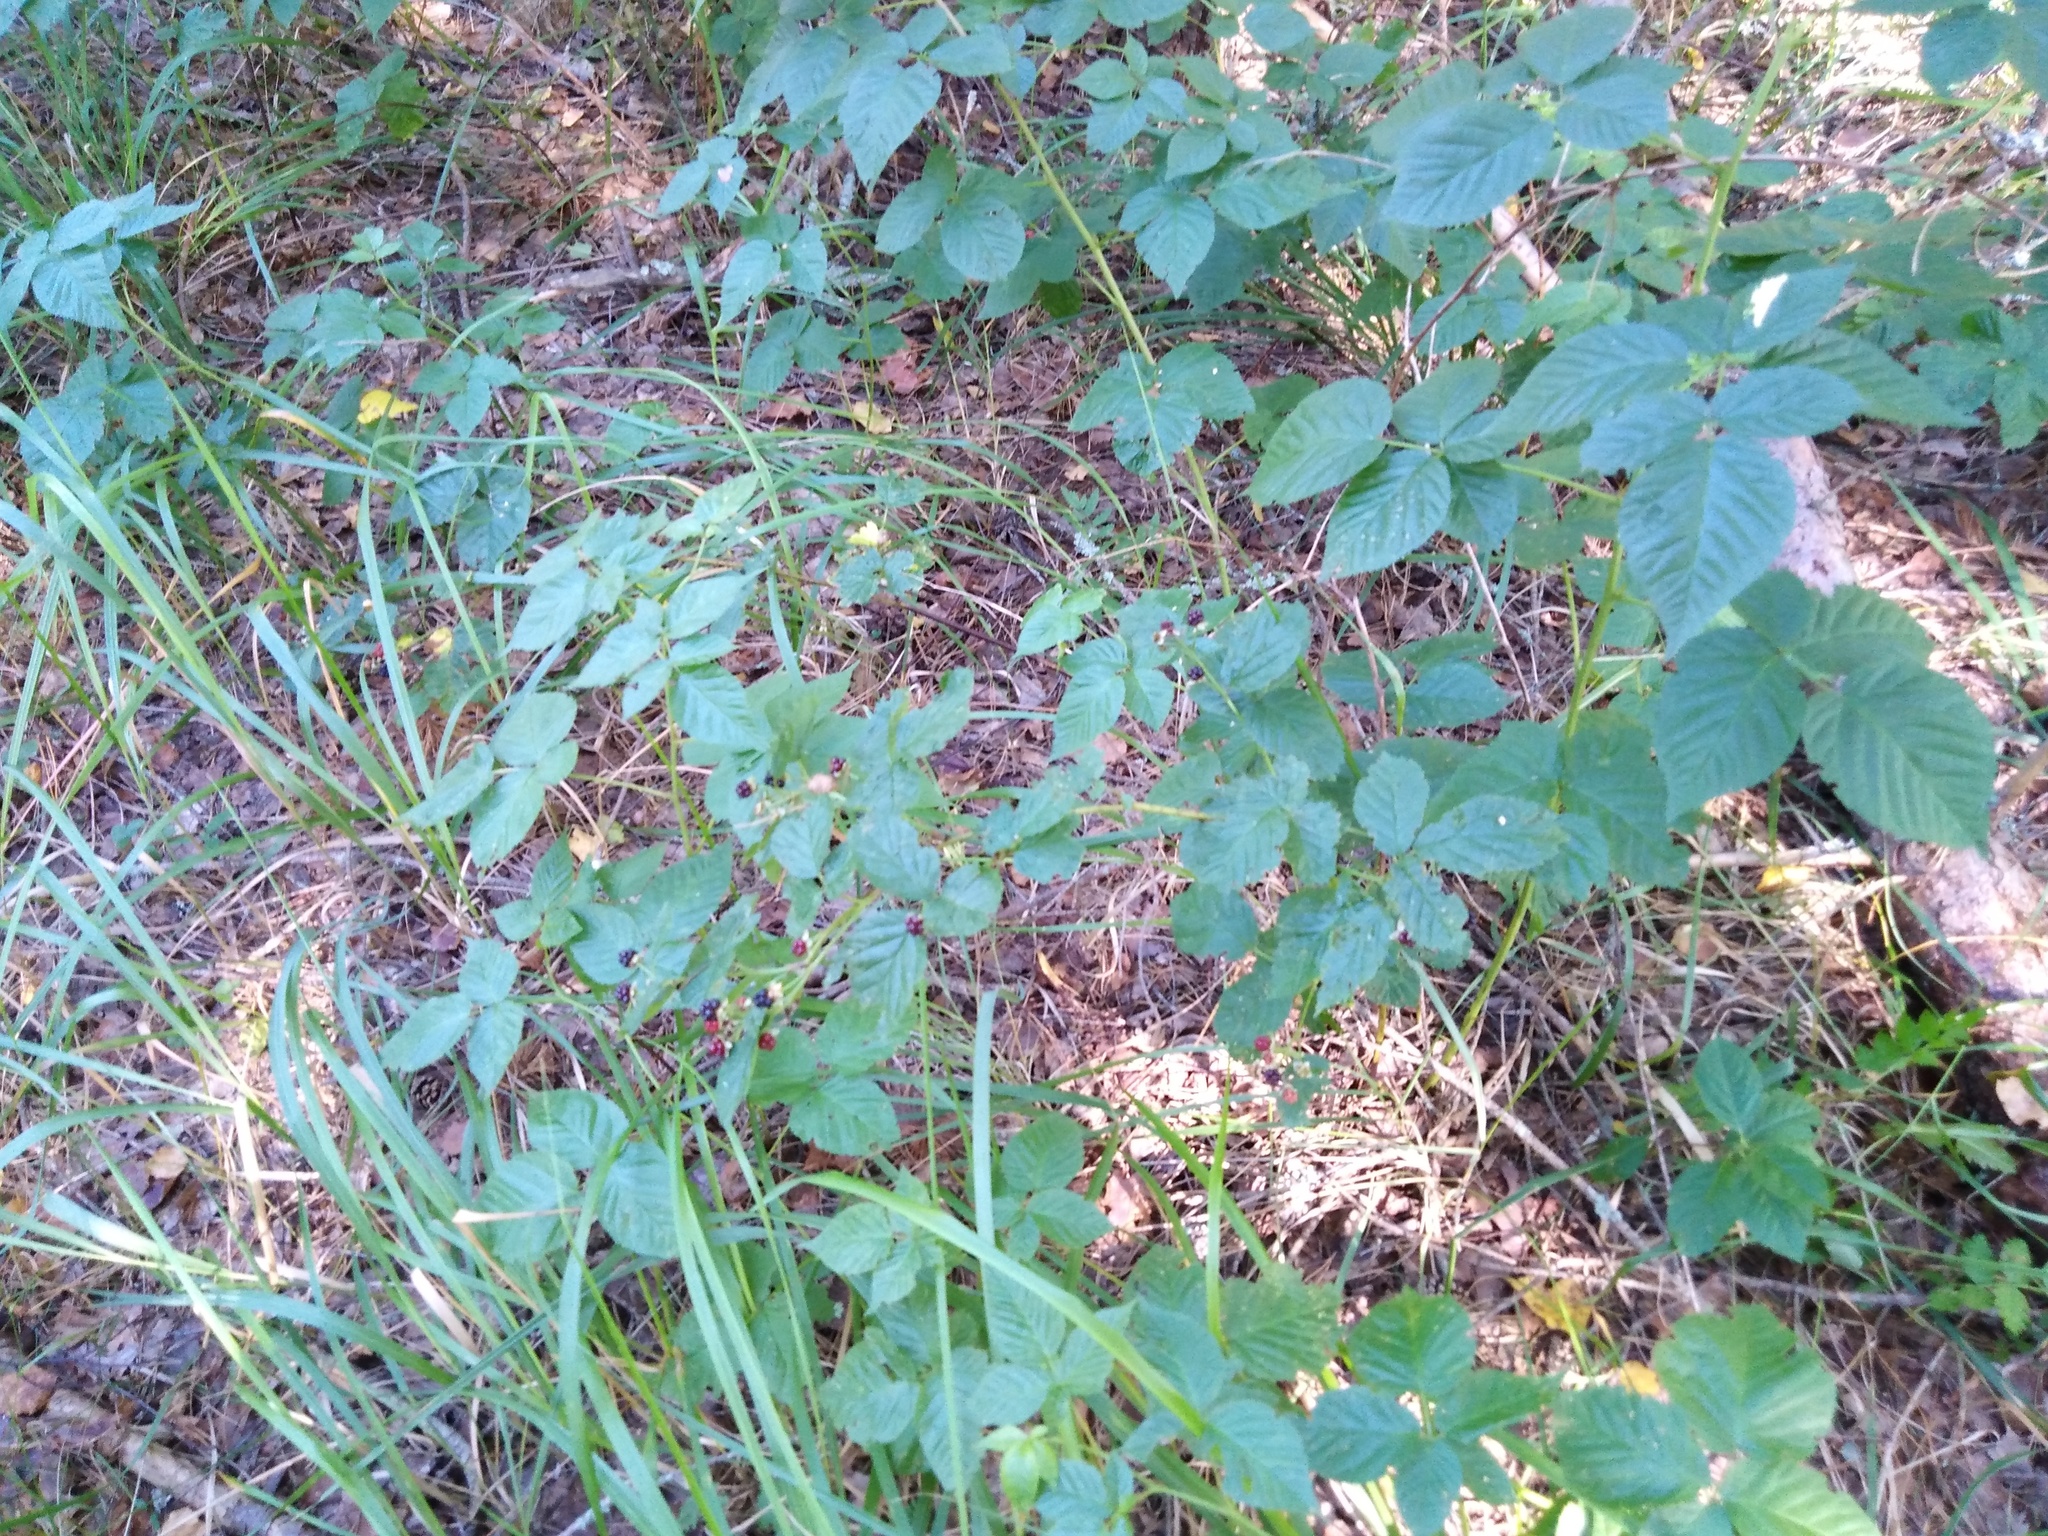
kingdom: Plantae
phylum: Tracheophyta
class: Magnoliopsida
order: Rosales
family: Rosaceae
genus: Rubus
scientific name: Rubus polonicus
